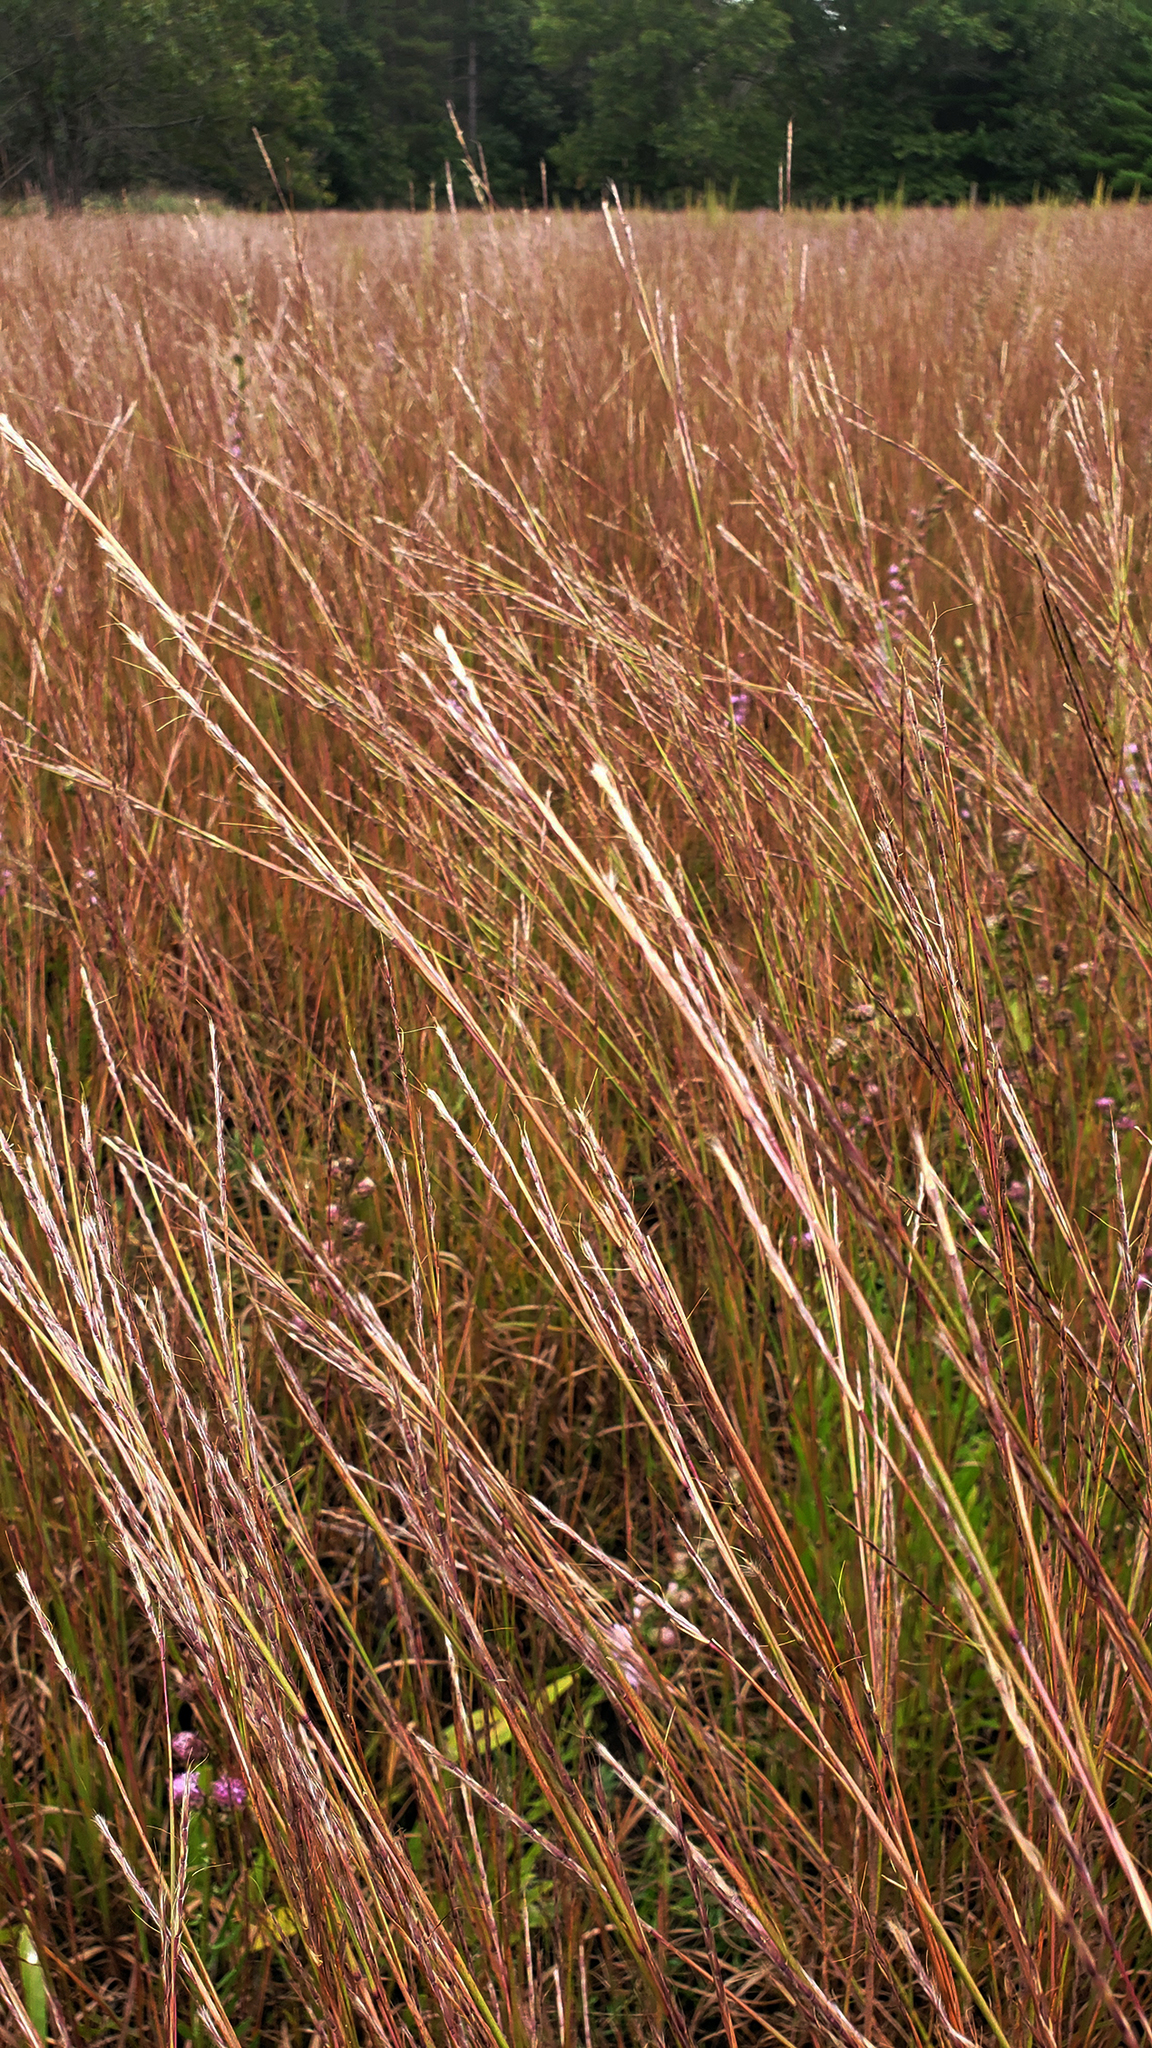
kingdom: Plantae
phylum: Tracheophyta
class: Liliopsida
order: Poales
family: Poaceae
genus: Schizachyrium
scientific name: Schizachyrium scoparium
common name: Little bluestem
